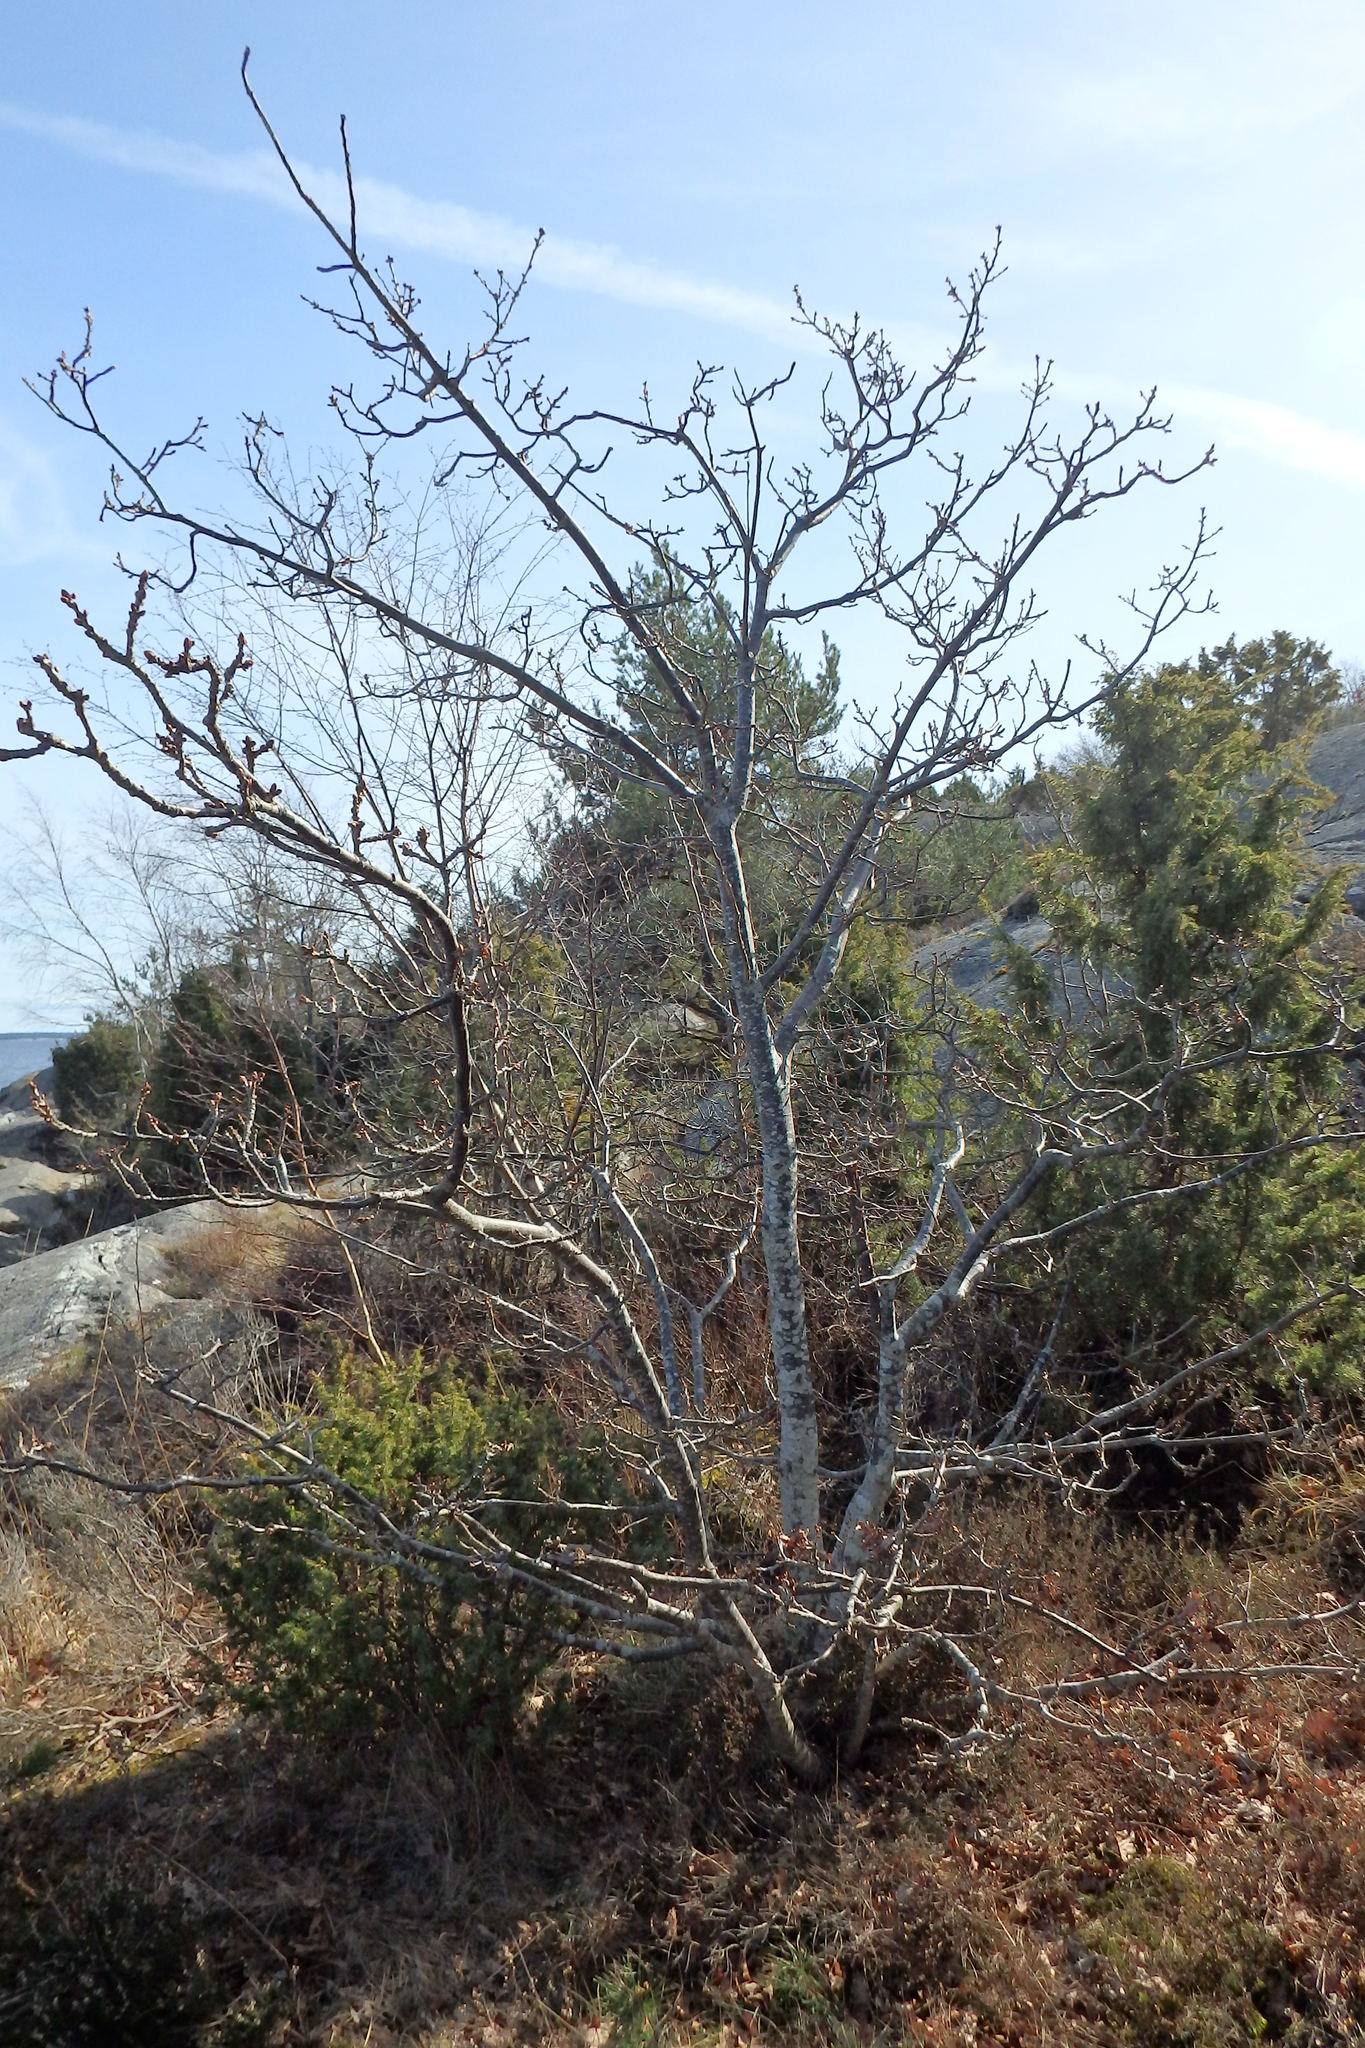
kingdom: Plantae
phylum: Tracheophyta
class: Magnoliopsida
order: Fagales
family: Fagaceae
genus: Quercus
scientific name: Quercus robur
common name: Pedunculate oak
